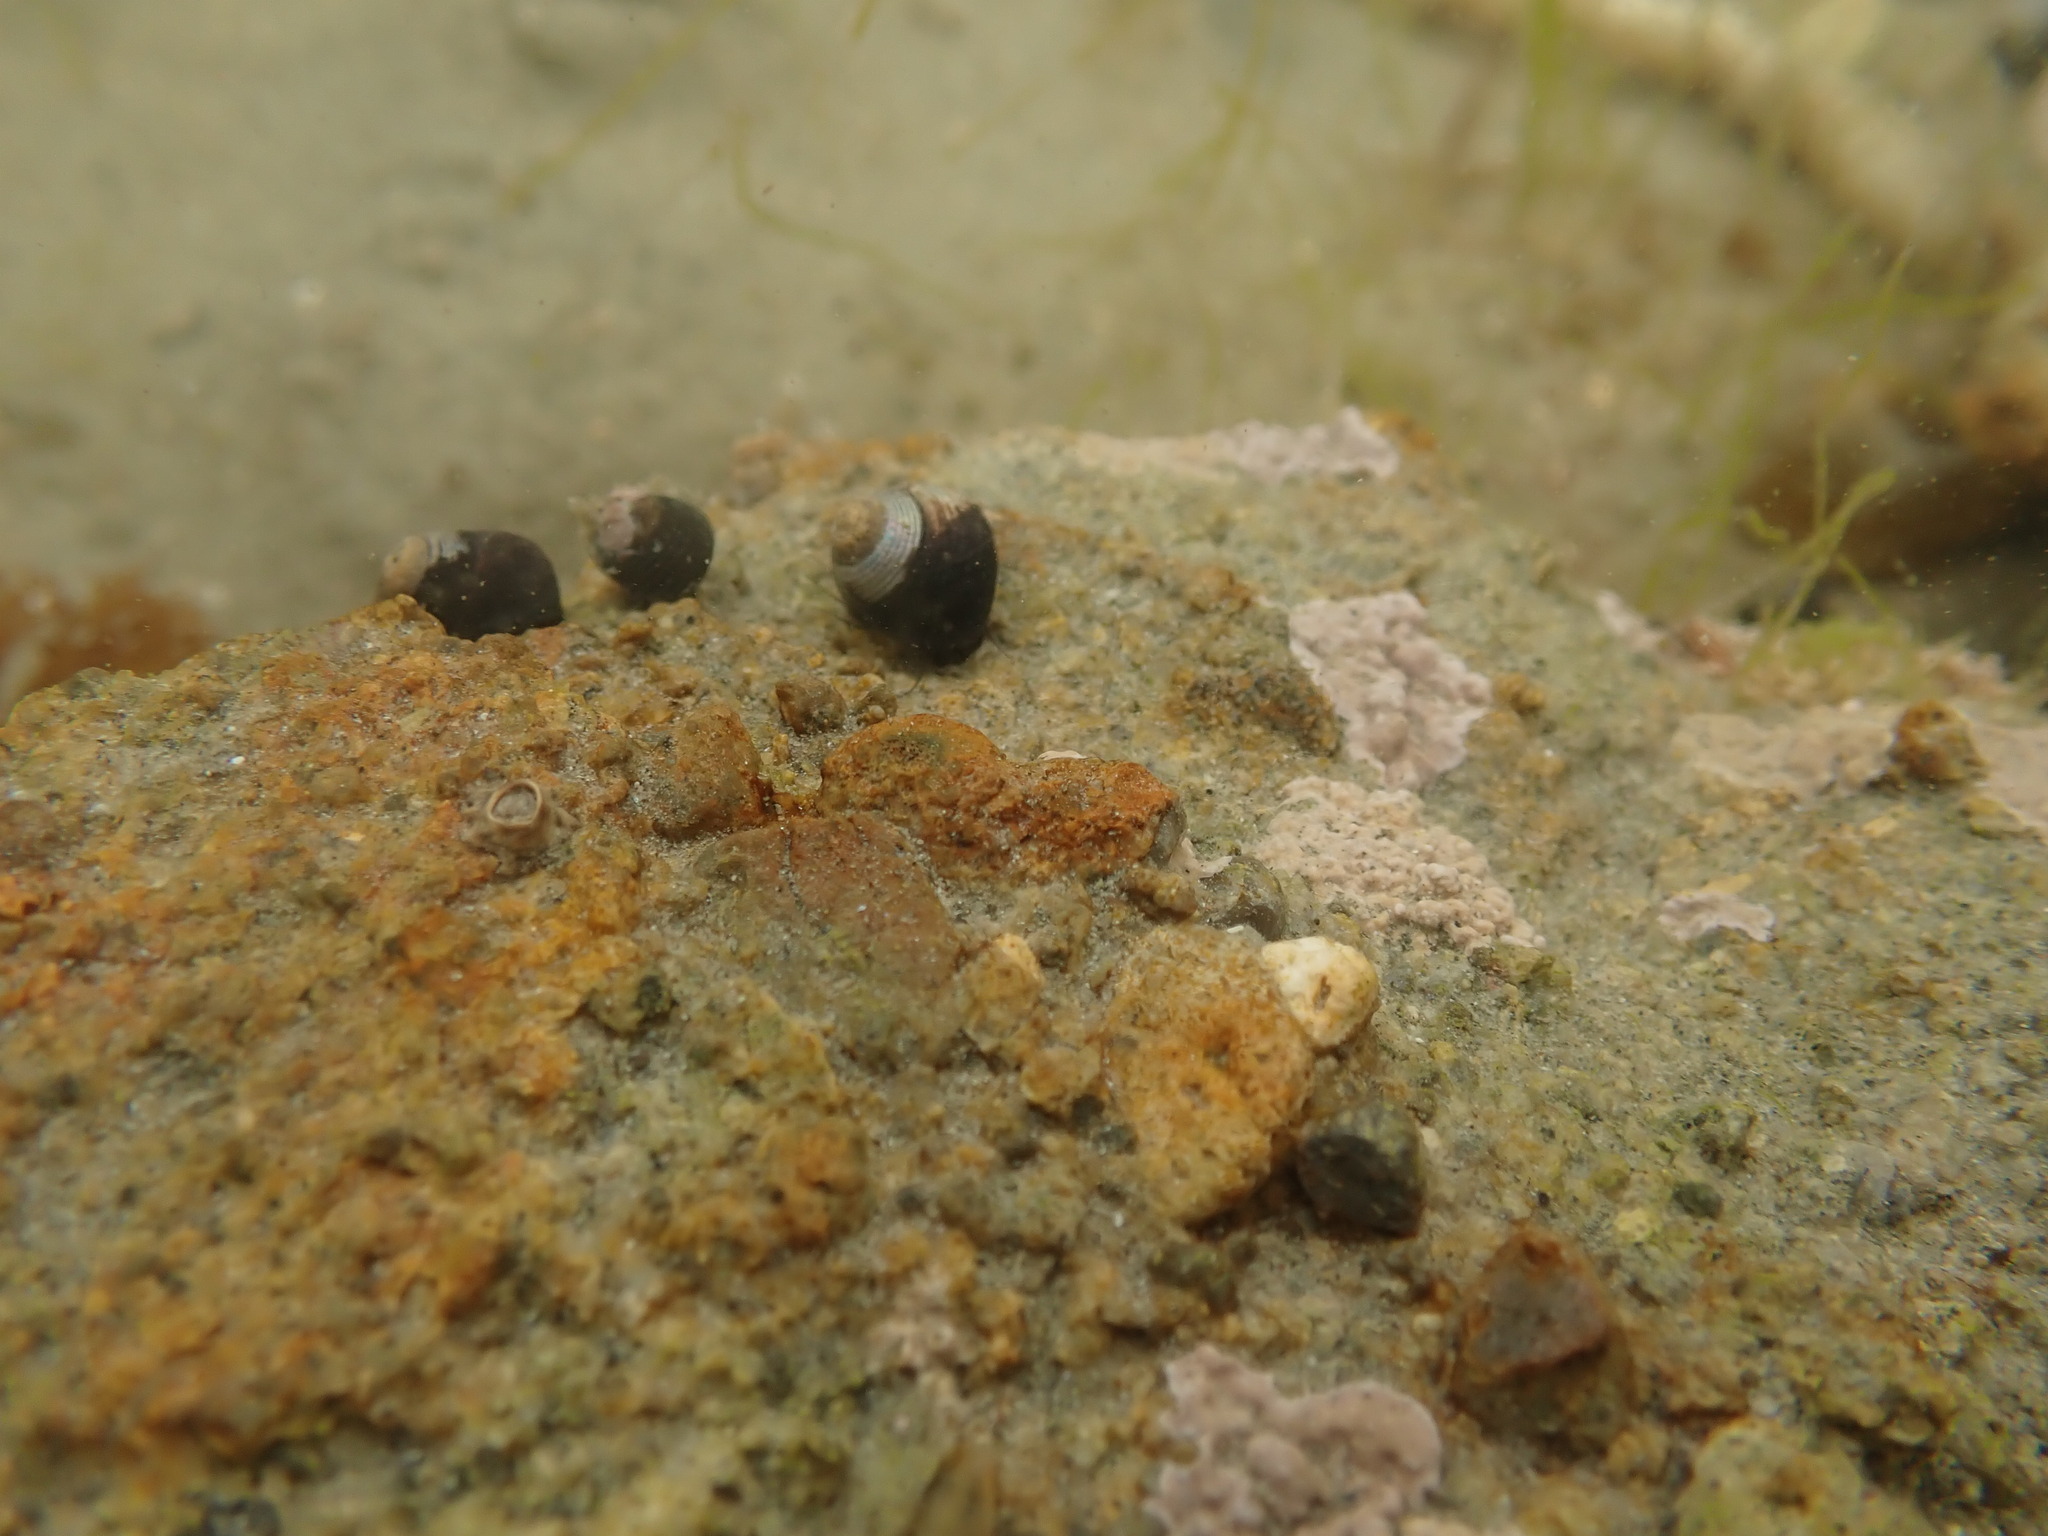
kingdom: Animalia
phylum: Mollusca
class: Gastropoda
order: Trochida
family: Trochidae
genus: Micrelenchus
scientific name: Micrelenchus huttonii
